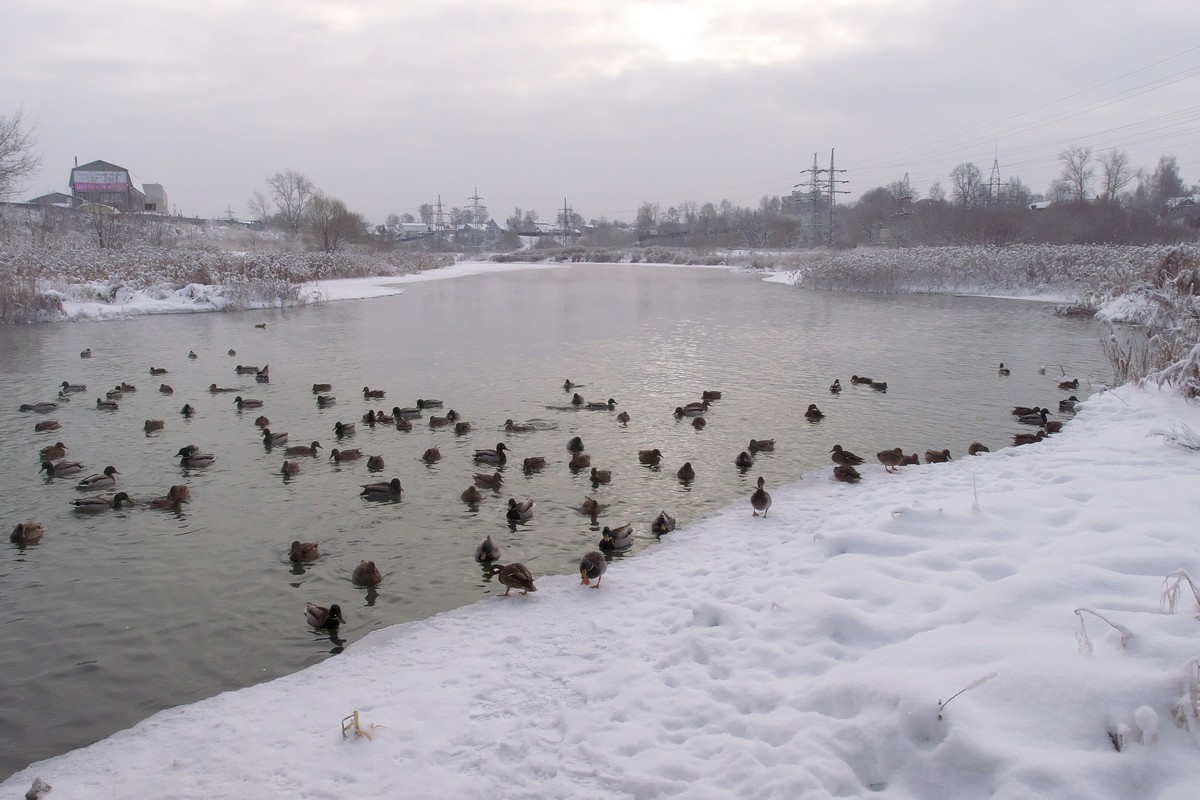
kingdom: Animalia
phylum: Chordata
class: Aves
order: Anseriformes
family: Anatidae
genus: Anas
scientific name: Anas platyrhynchos
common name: Mallard
